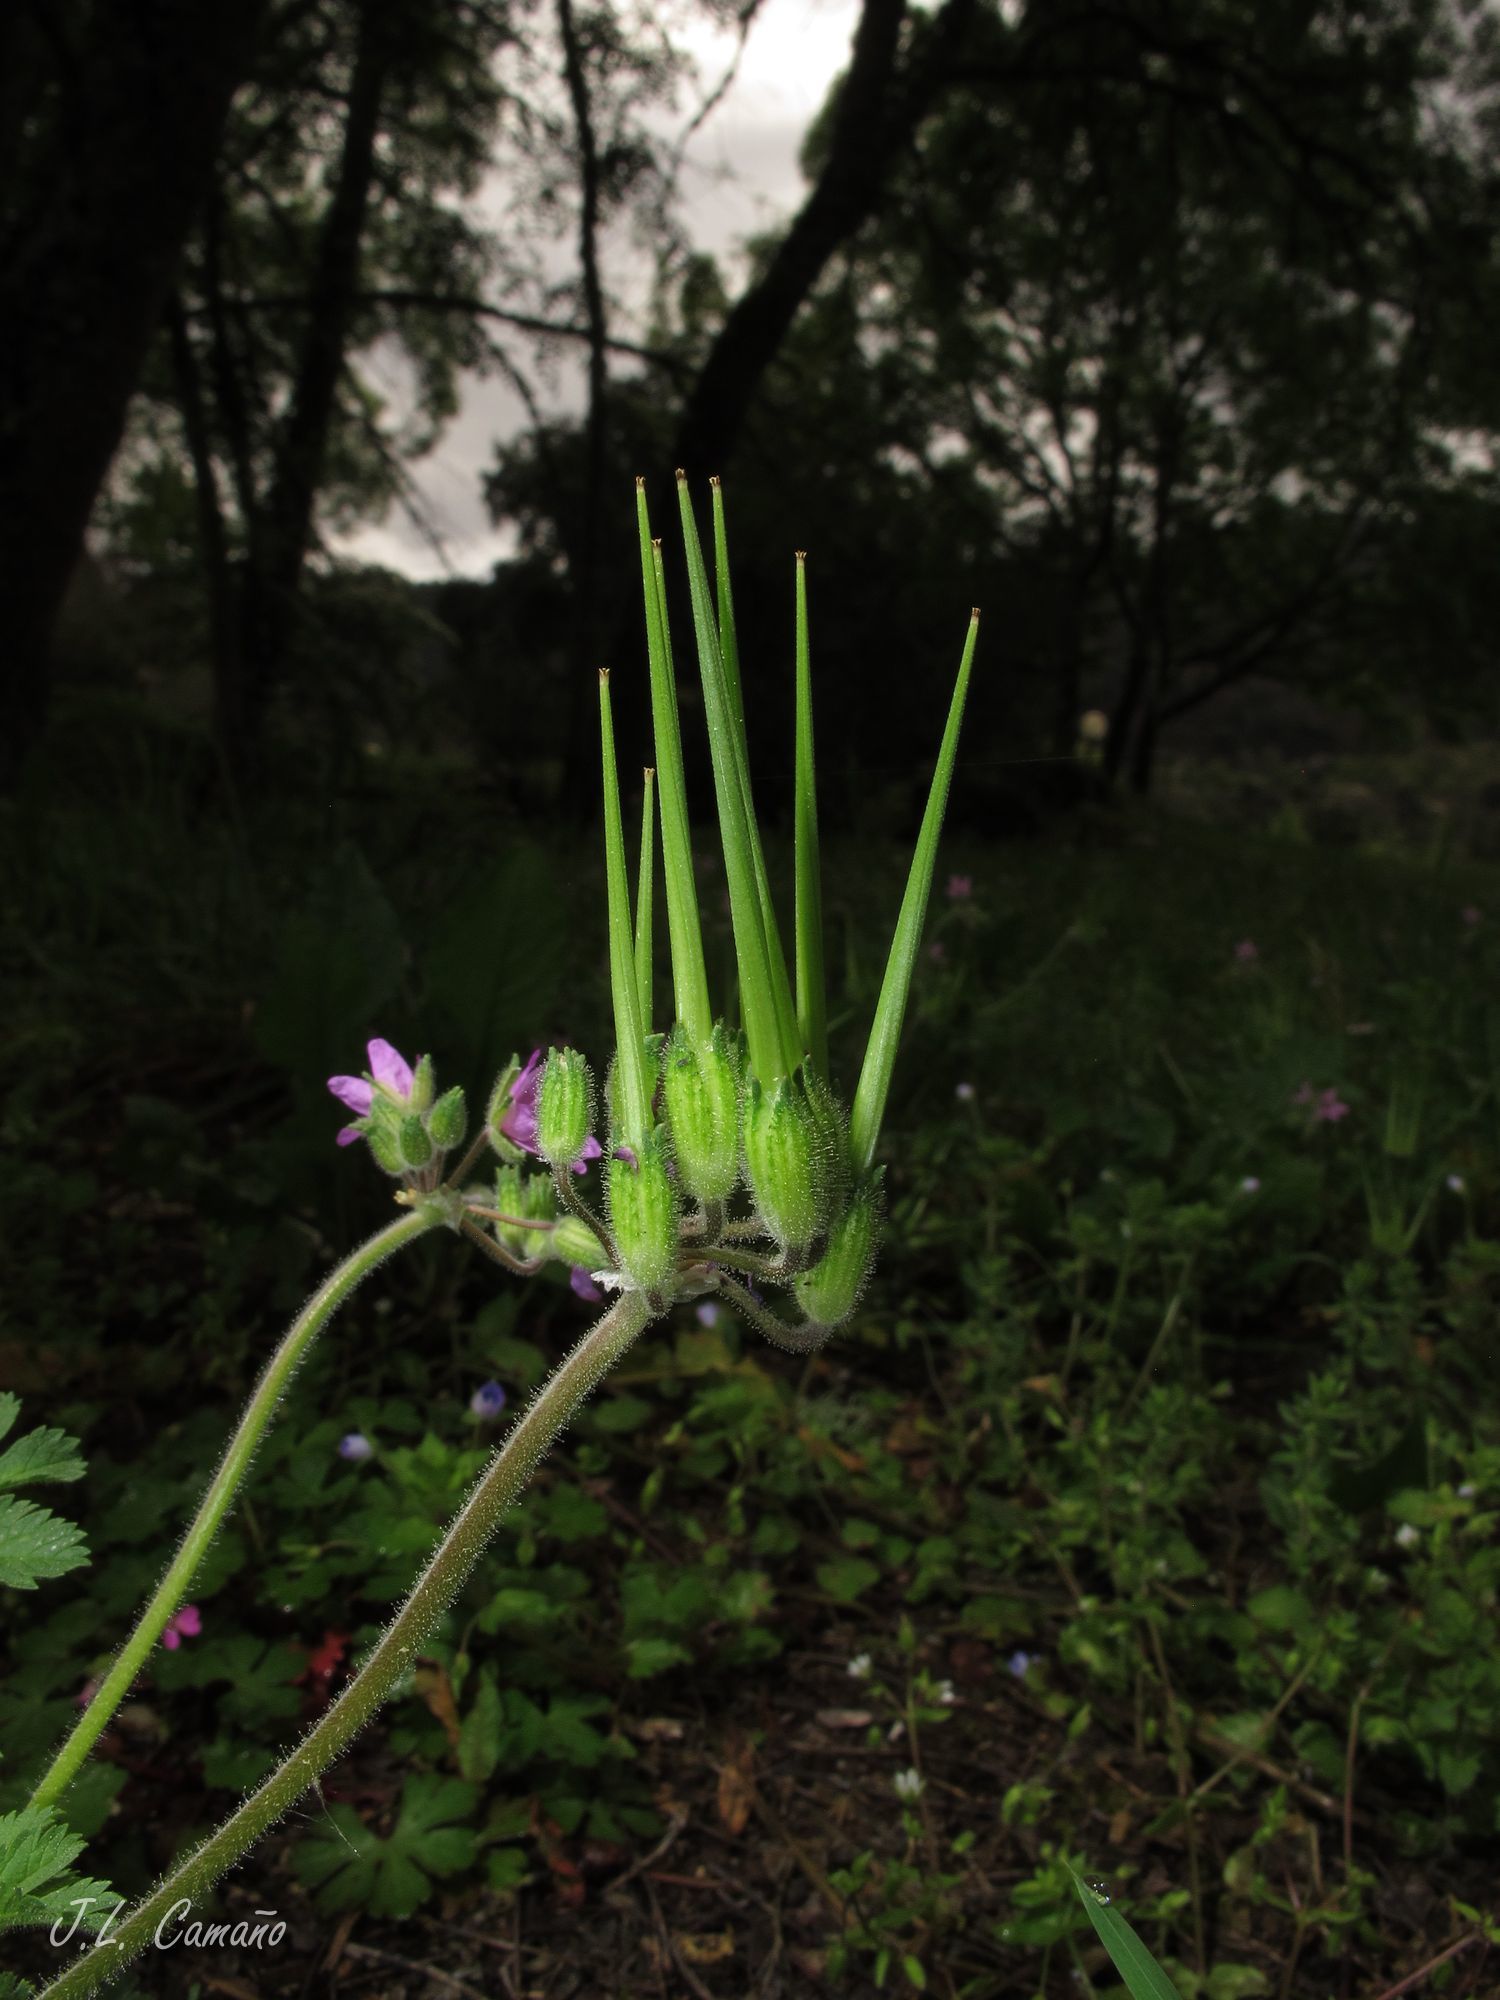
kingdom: Plantae
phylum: Tracheophyta
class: Magnoliopsida
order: Geraniales
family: Geraniaceae
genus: Erodium
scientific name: Erodium moschatum
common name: Musk stork's-bill
